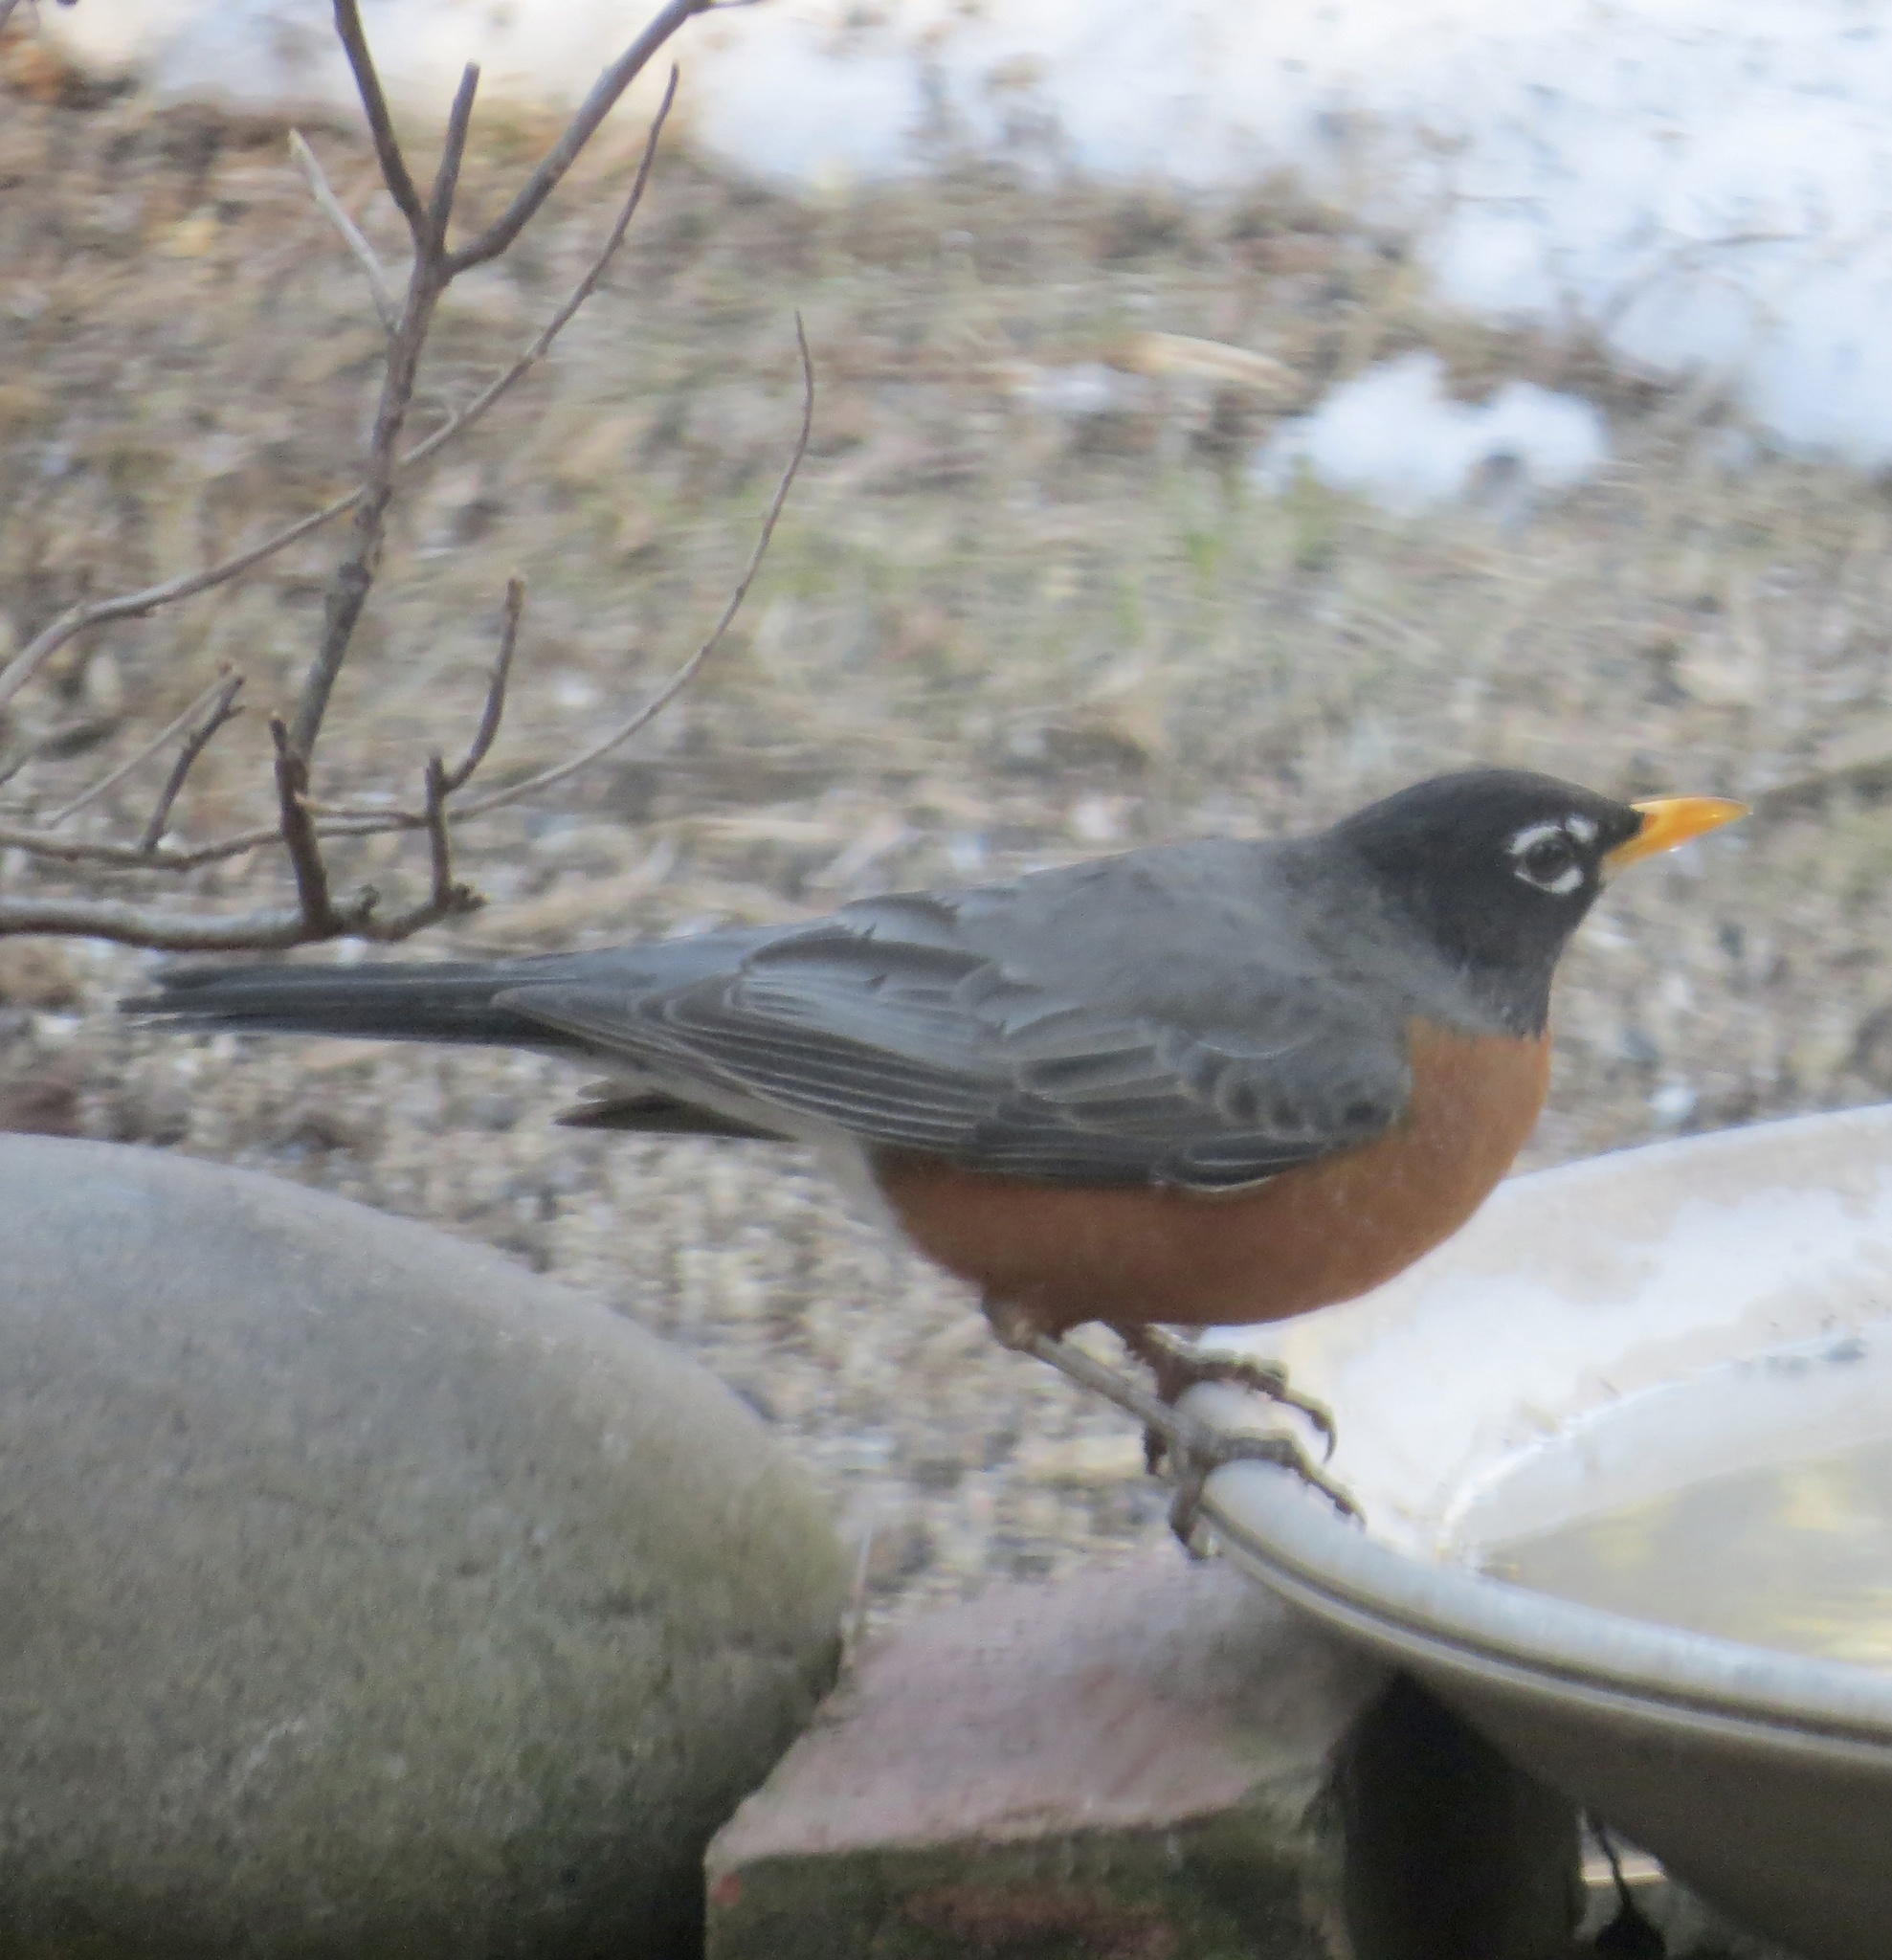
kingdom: Animalia
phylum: Chordata
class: Aves
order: Passeriformes
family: Turdidae
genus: Turdus
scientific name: Turdus migratorius
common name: American robin
